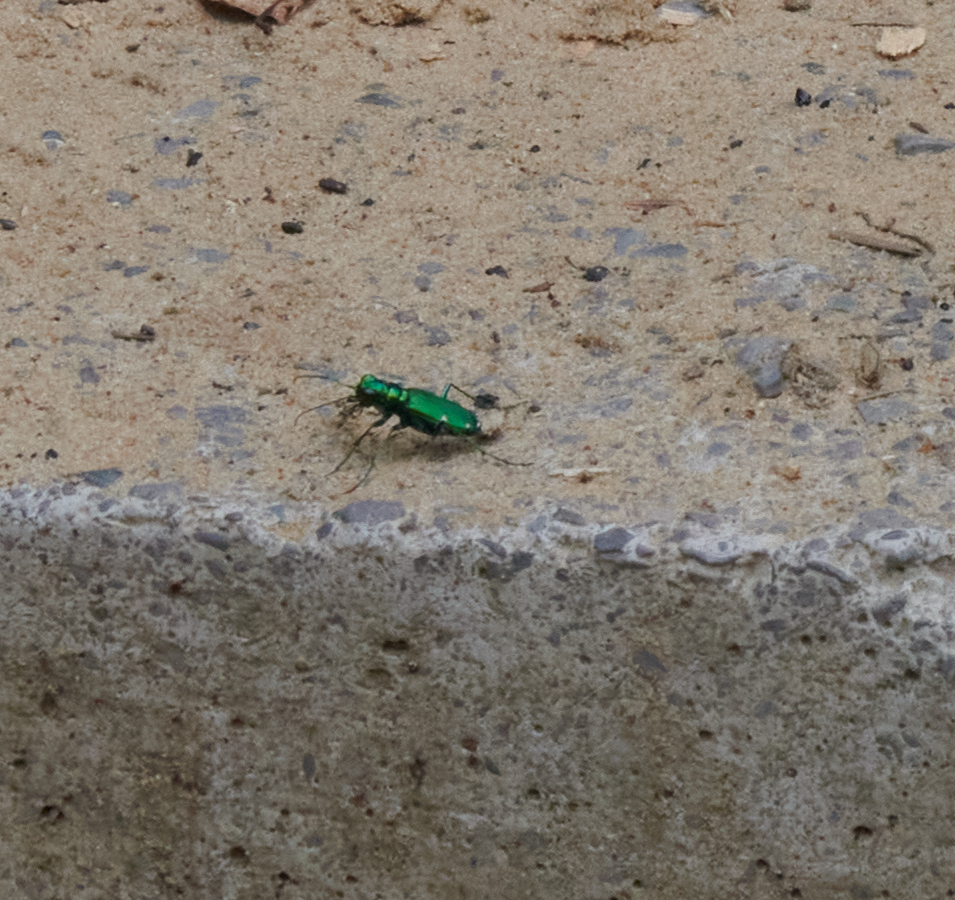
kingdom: Animalia
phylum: Arthropoda
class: Insecta
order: Coleoptera
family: Carabidae
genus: Cicindela
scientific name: Cicindela sexguttata
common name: Six-spotted tiger beetle
